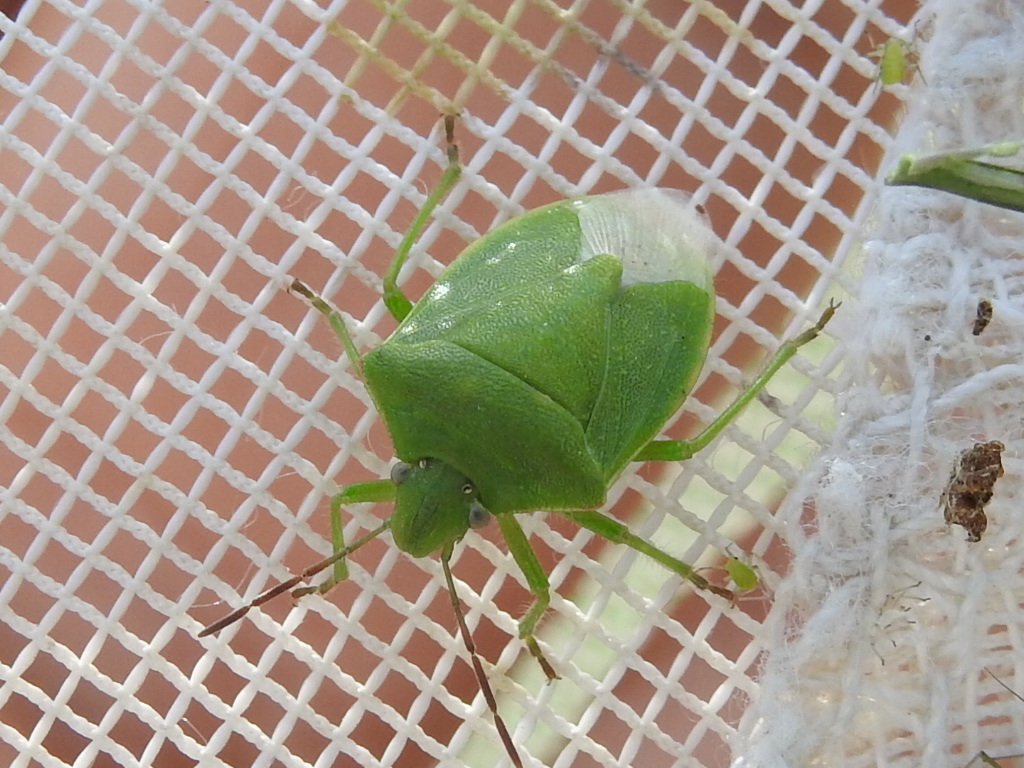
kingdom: Animalia
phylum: Arthropoda
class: Insecta
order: Hemiptera
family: Pentatomidae
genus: Thyanta
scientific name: Thyanta custator
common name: Stink bug
